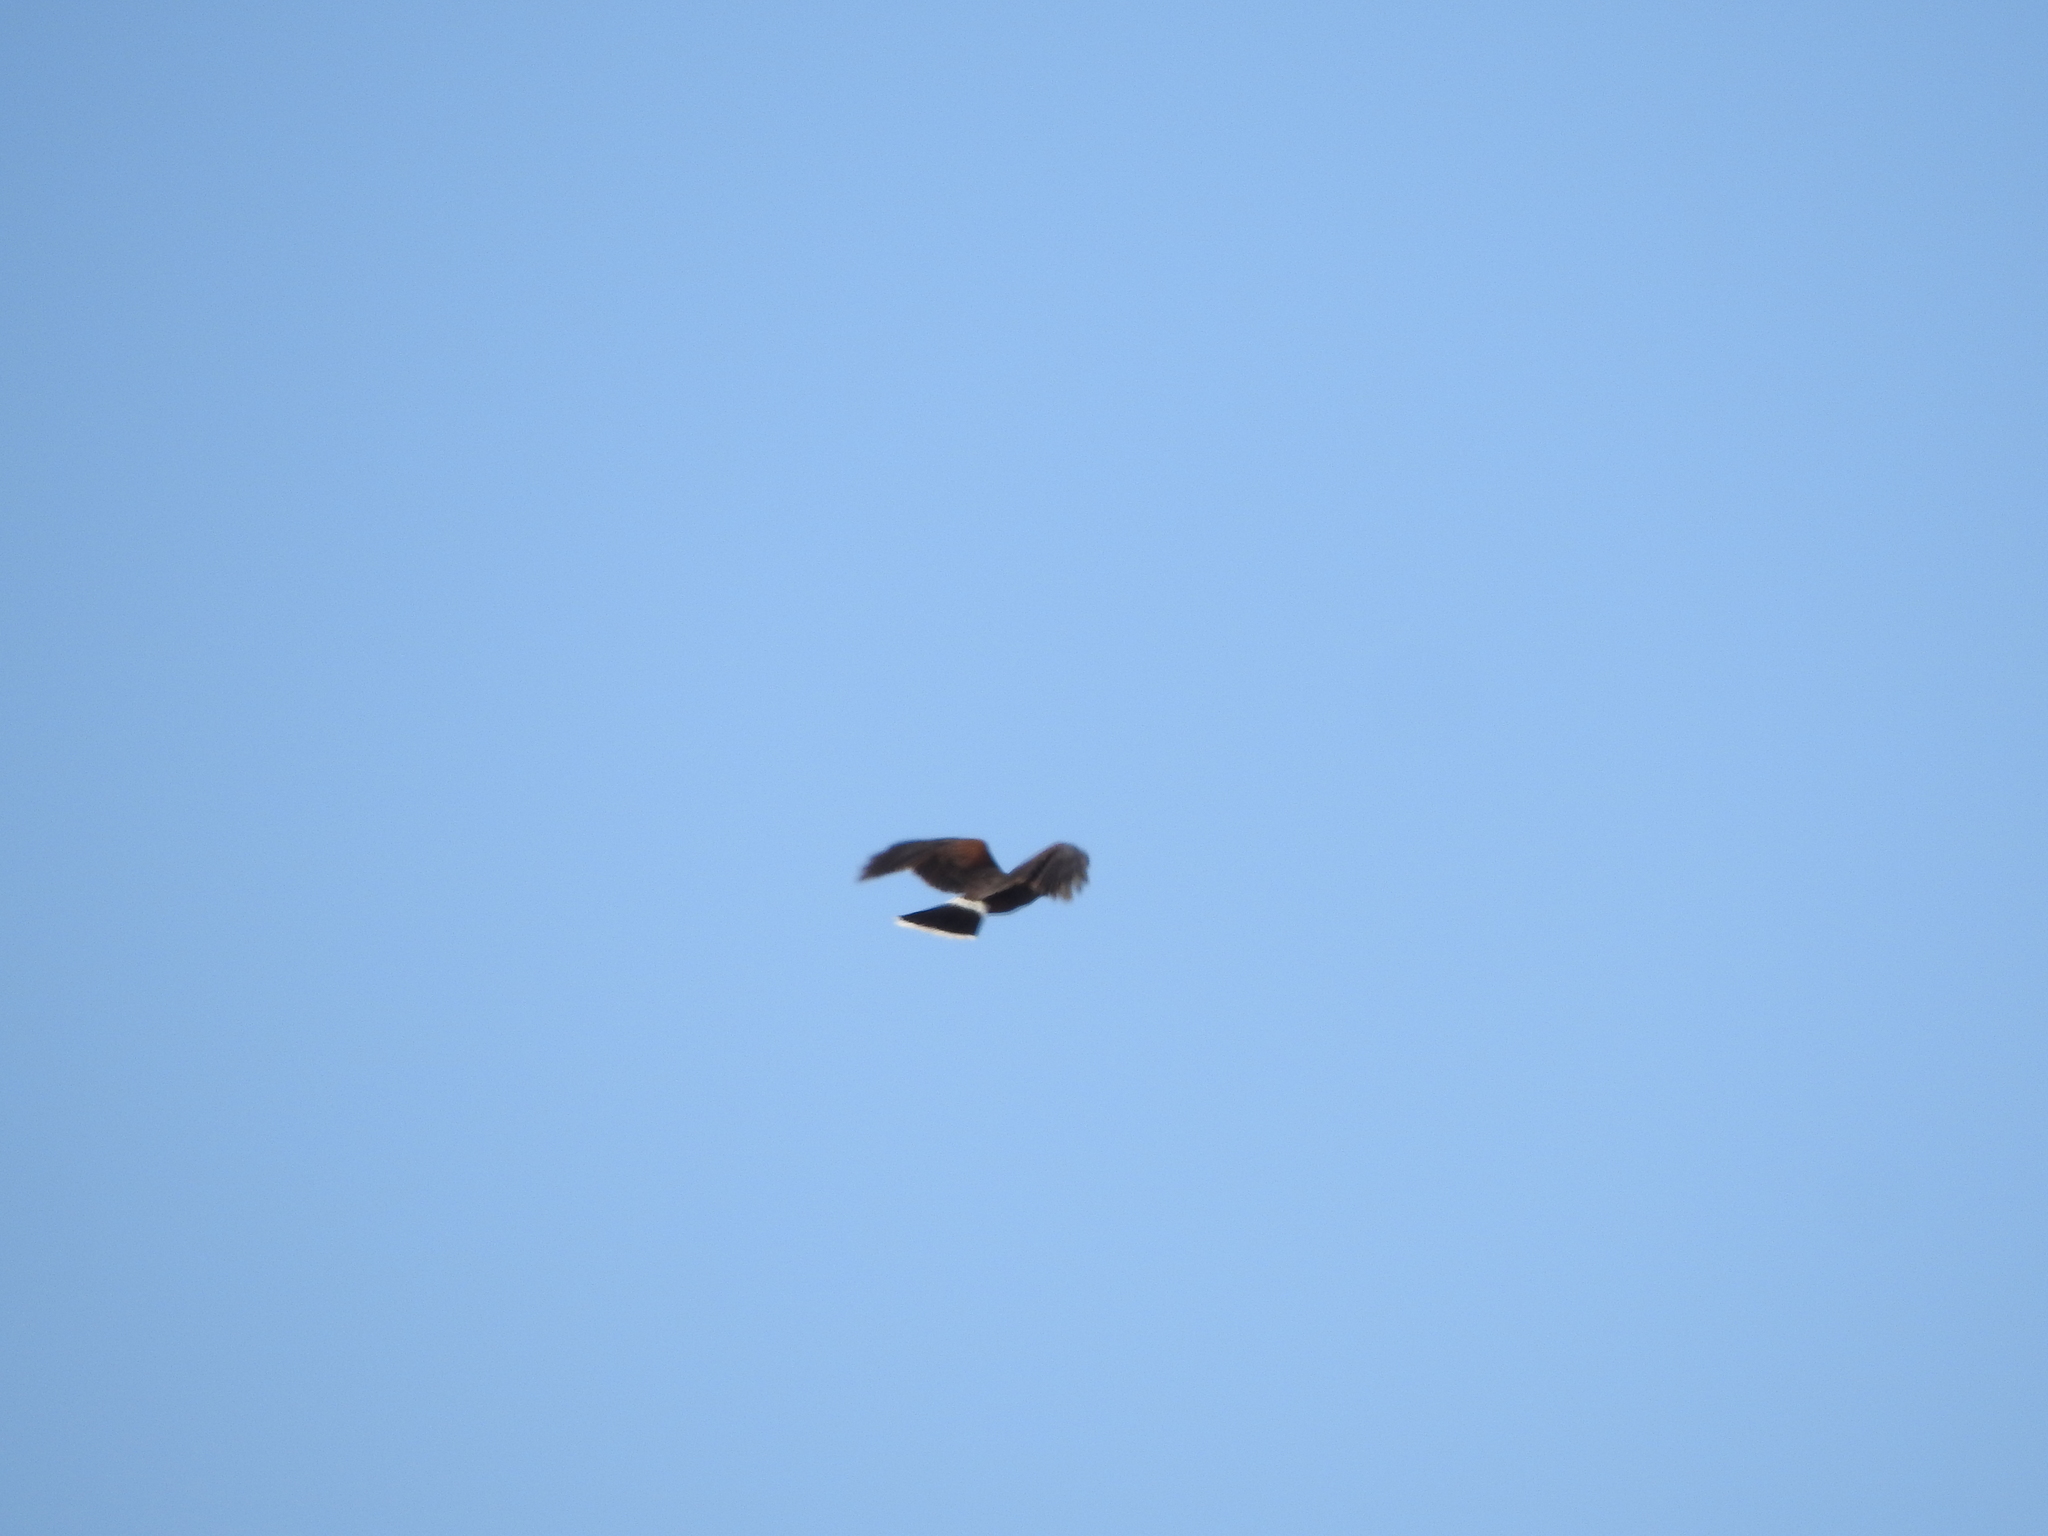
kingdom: Animalia
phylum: Chordata
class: Aves
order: Accipitriformes
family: Accipitridae
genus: Parabuteo
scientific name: Parabuteo unicinctus
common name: Harris's hawk
